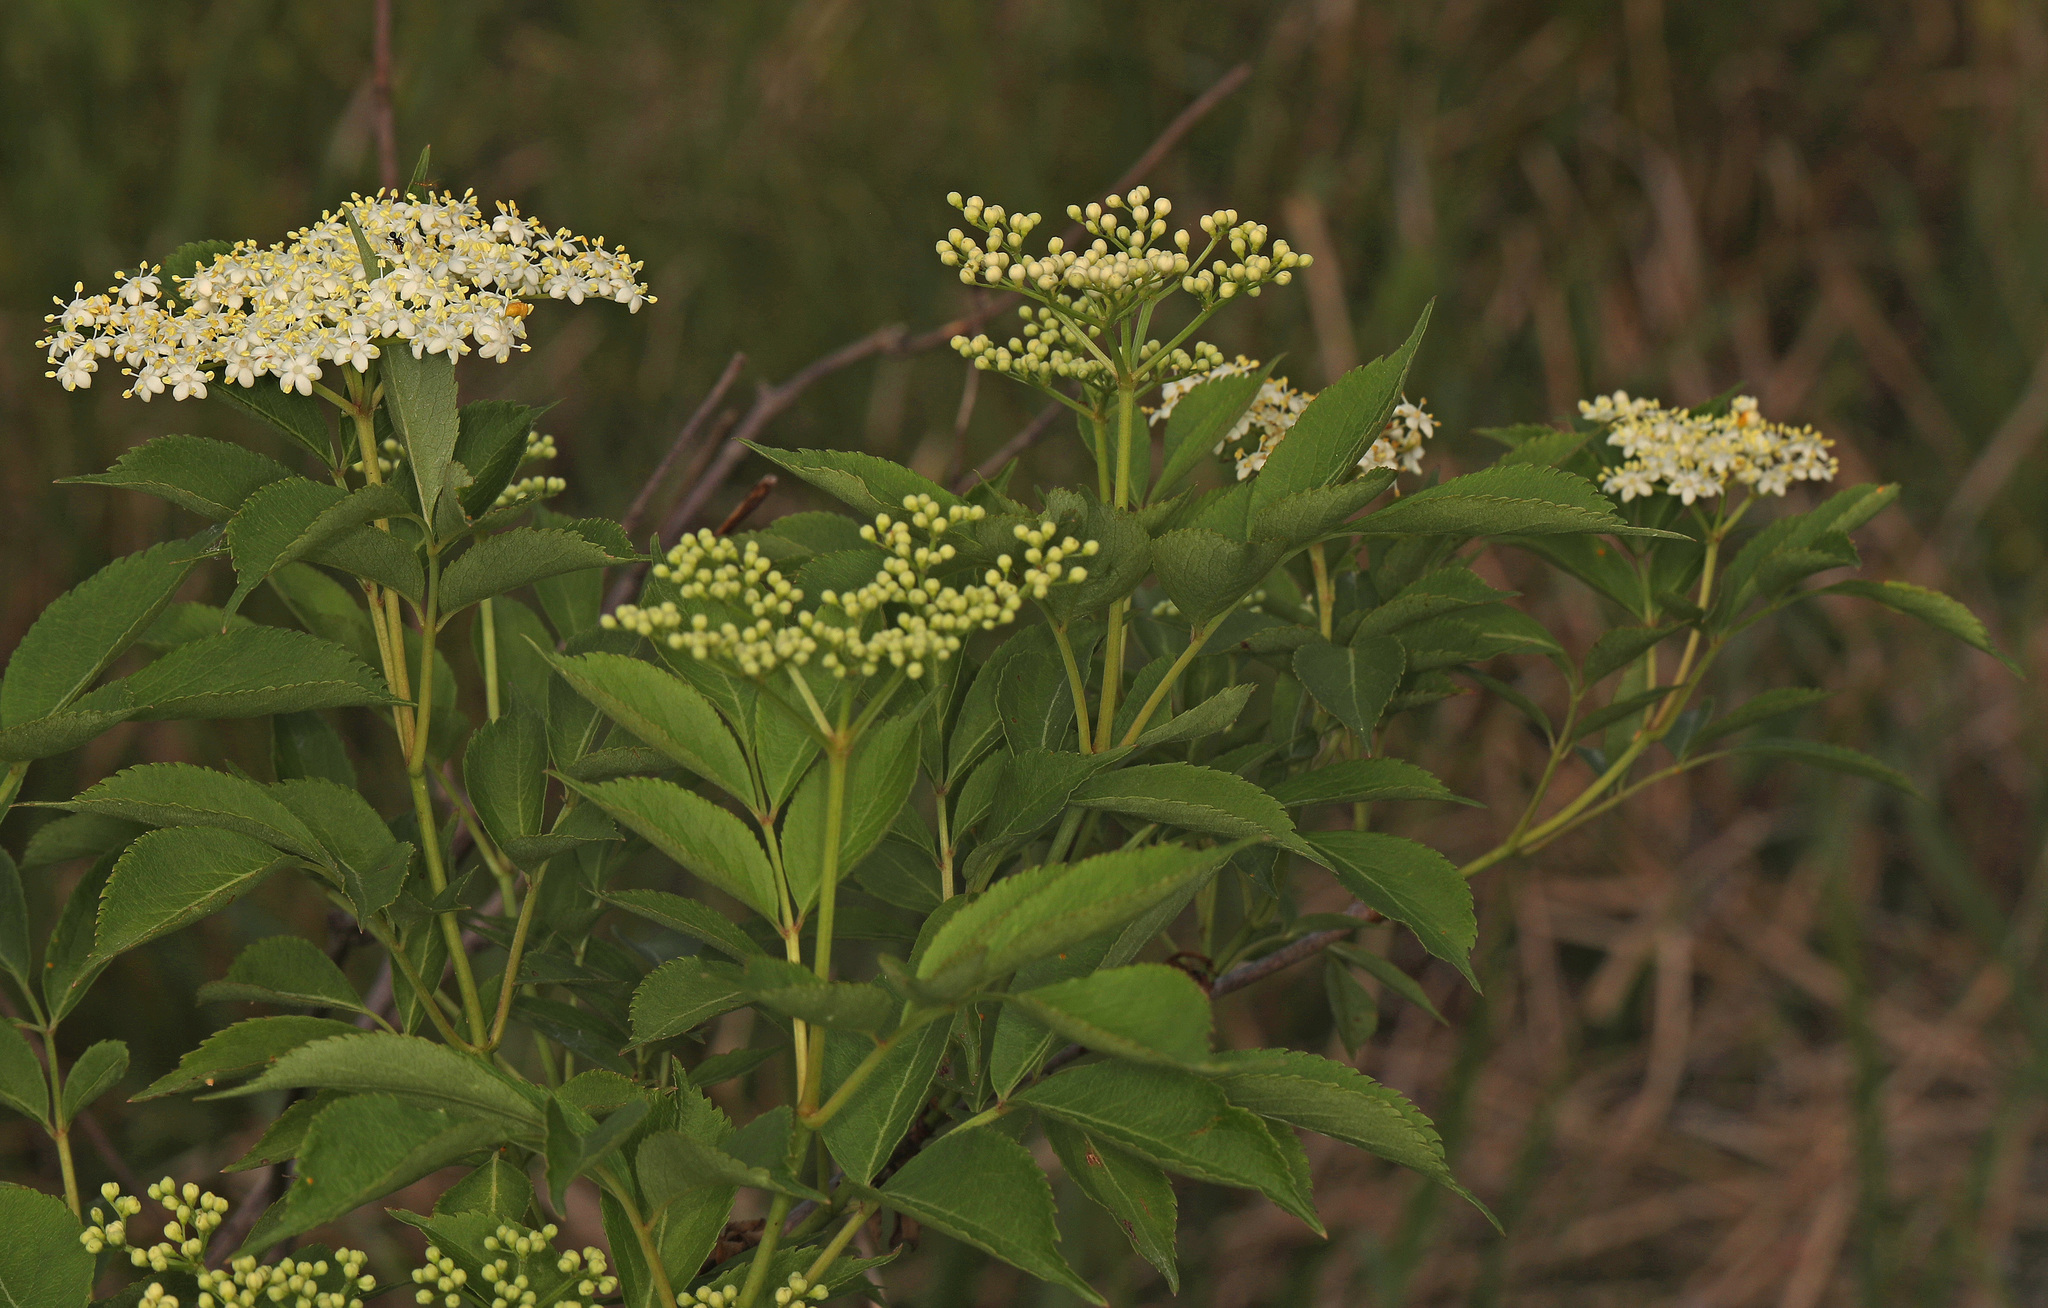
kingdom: Plantae
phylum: Tracheophyta
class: Magnoliopsida
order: Dipsacales
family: Viburnaceae
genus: Sambucus
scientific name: Sambucus canadensis
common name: American elder
